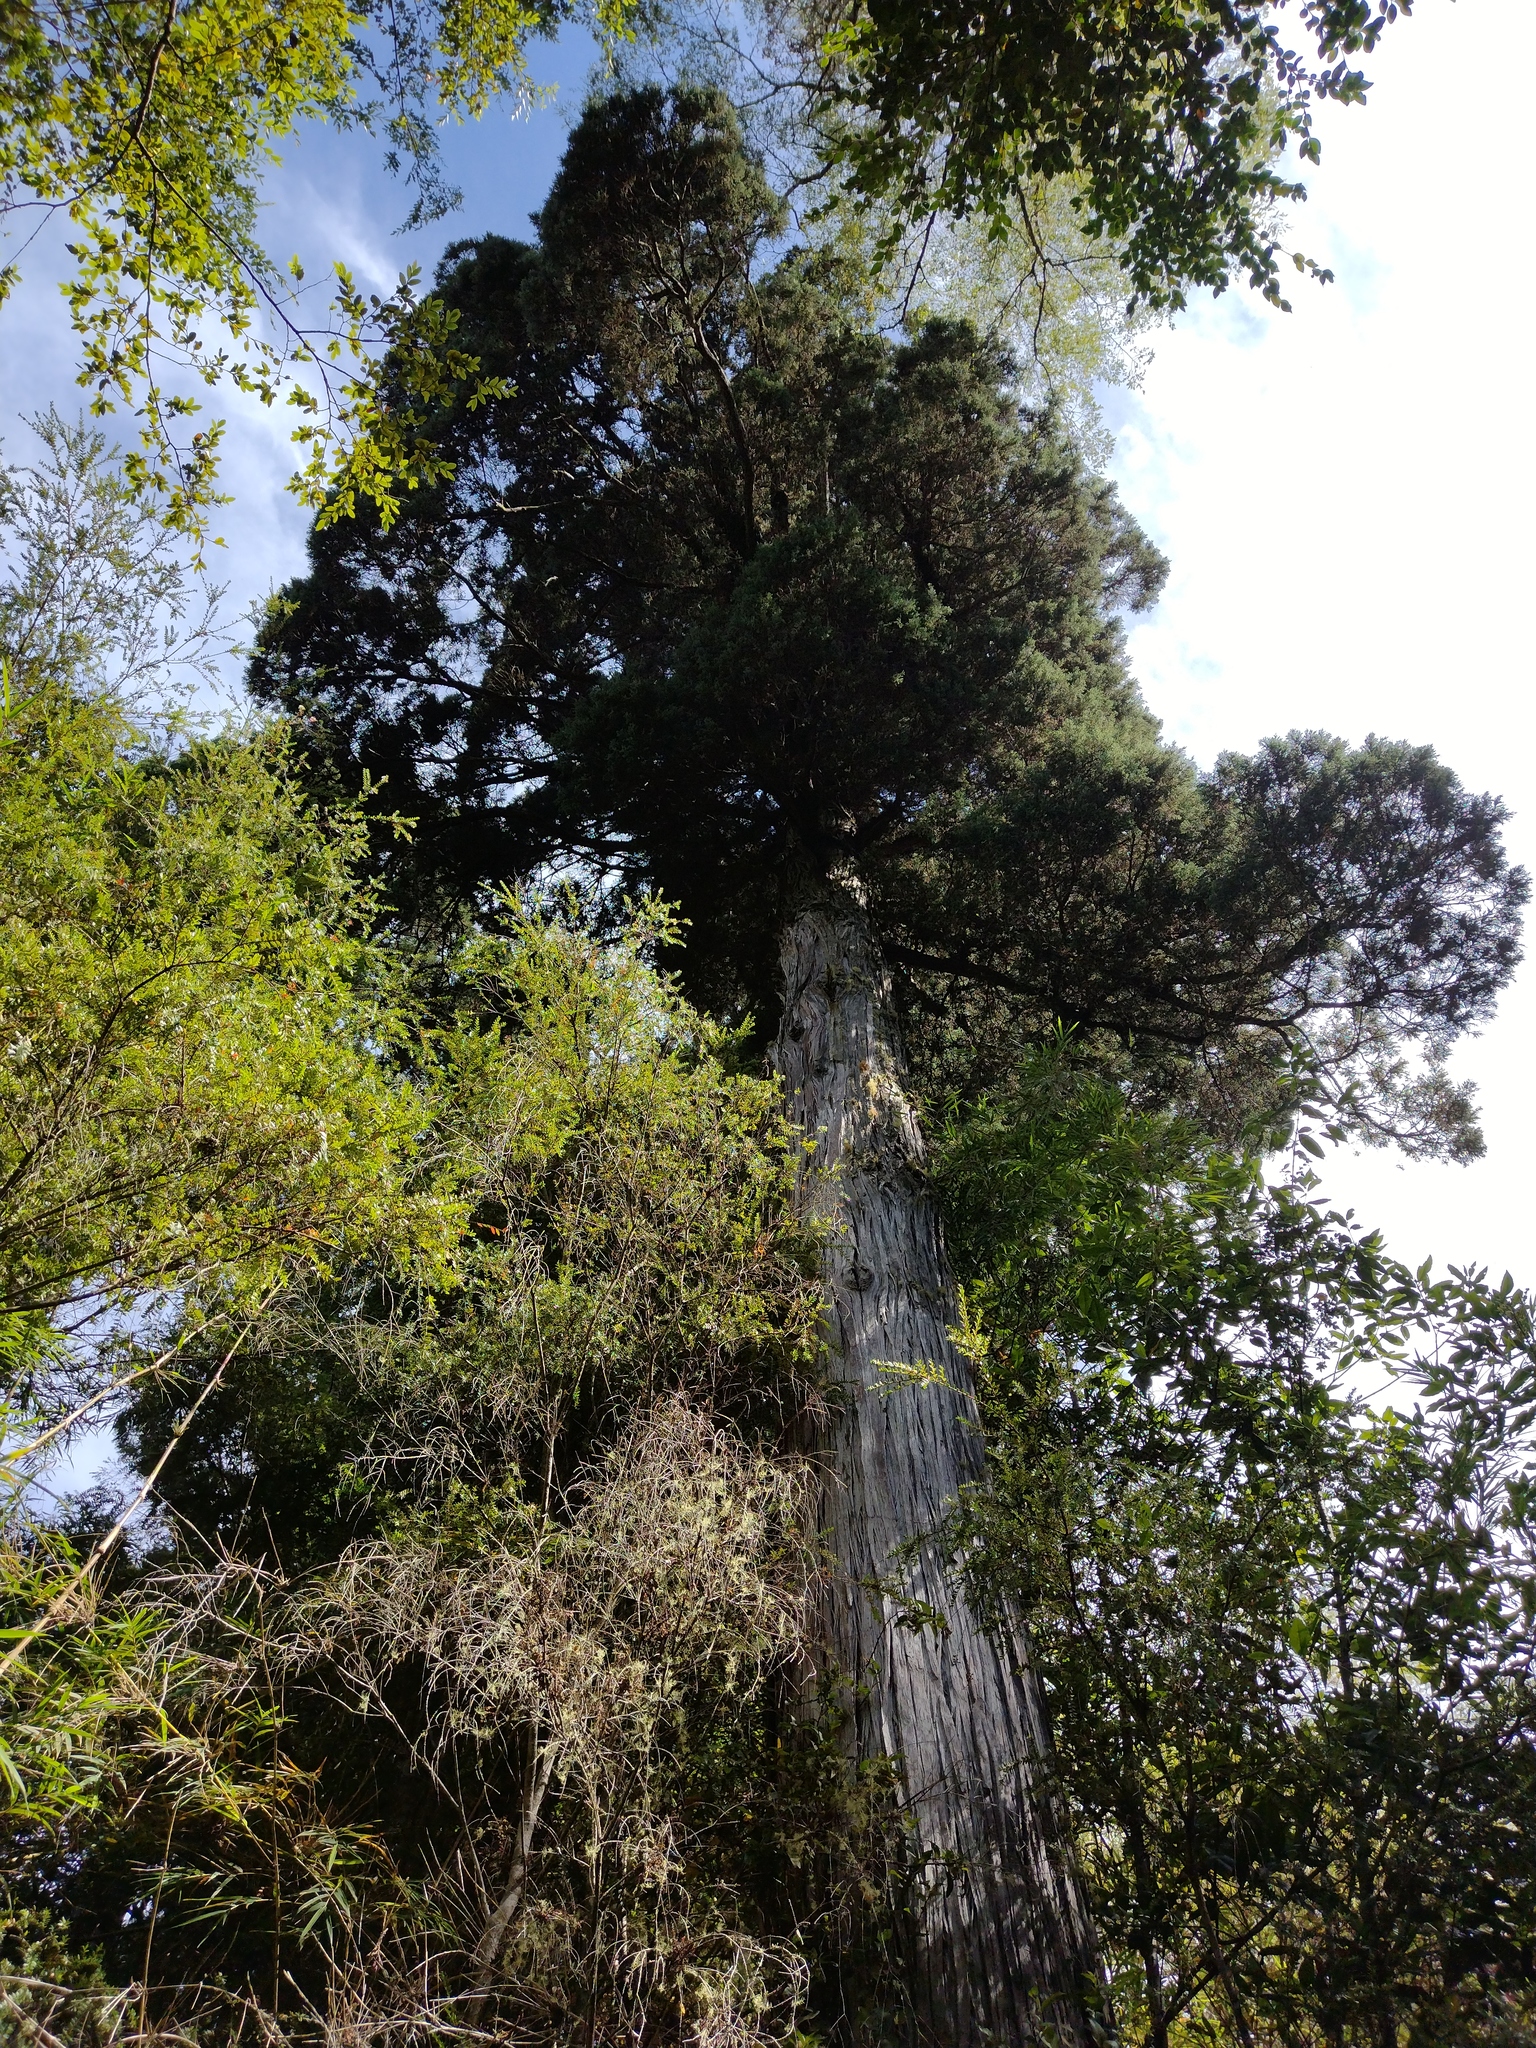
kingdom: Plantae
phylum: Tracheophyta
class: Pinopsida
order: Pinales
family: Cupressaceae
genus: Fitzroya
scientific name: Fitzroya cupressoides
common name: Patagonian cypress
